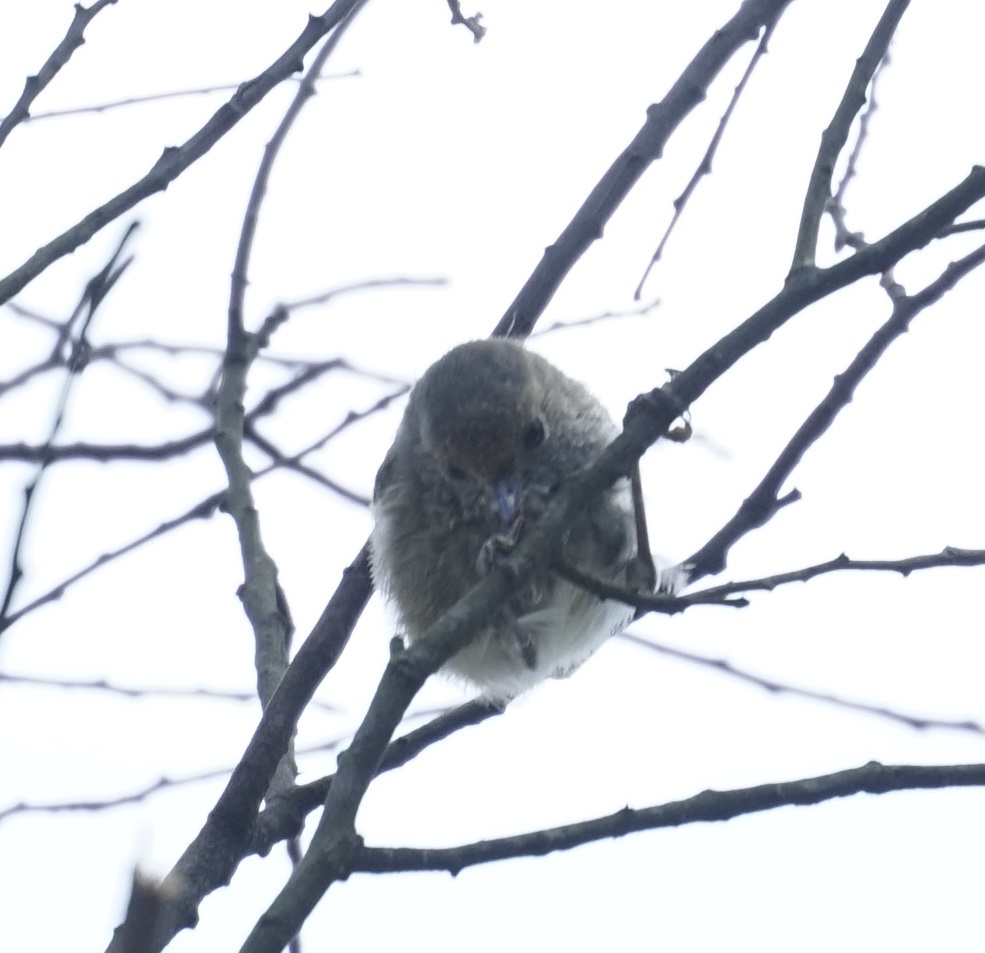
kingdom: Animalia
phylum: Chordata
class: Aves
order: Passeriformes
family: Acanthizidae
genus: Acanthiza
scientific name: Acanthiza pusilla
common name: Brown thornbill
